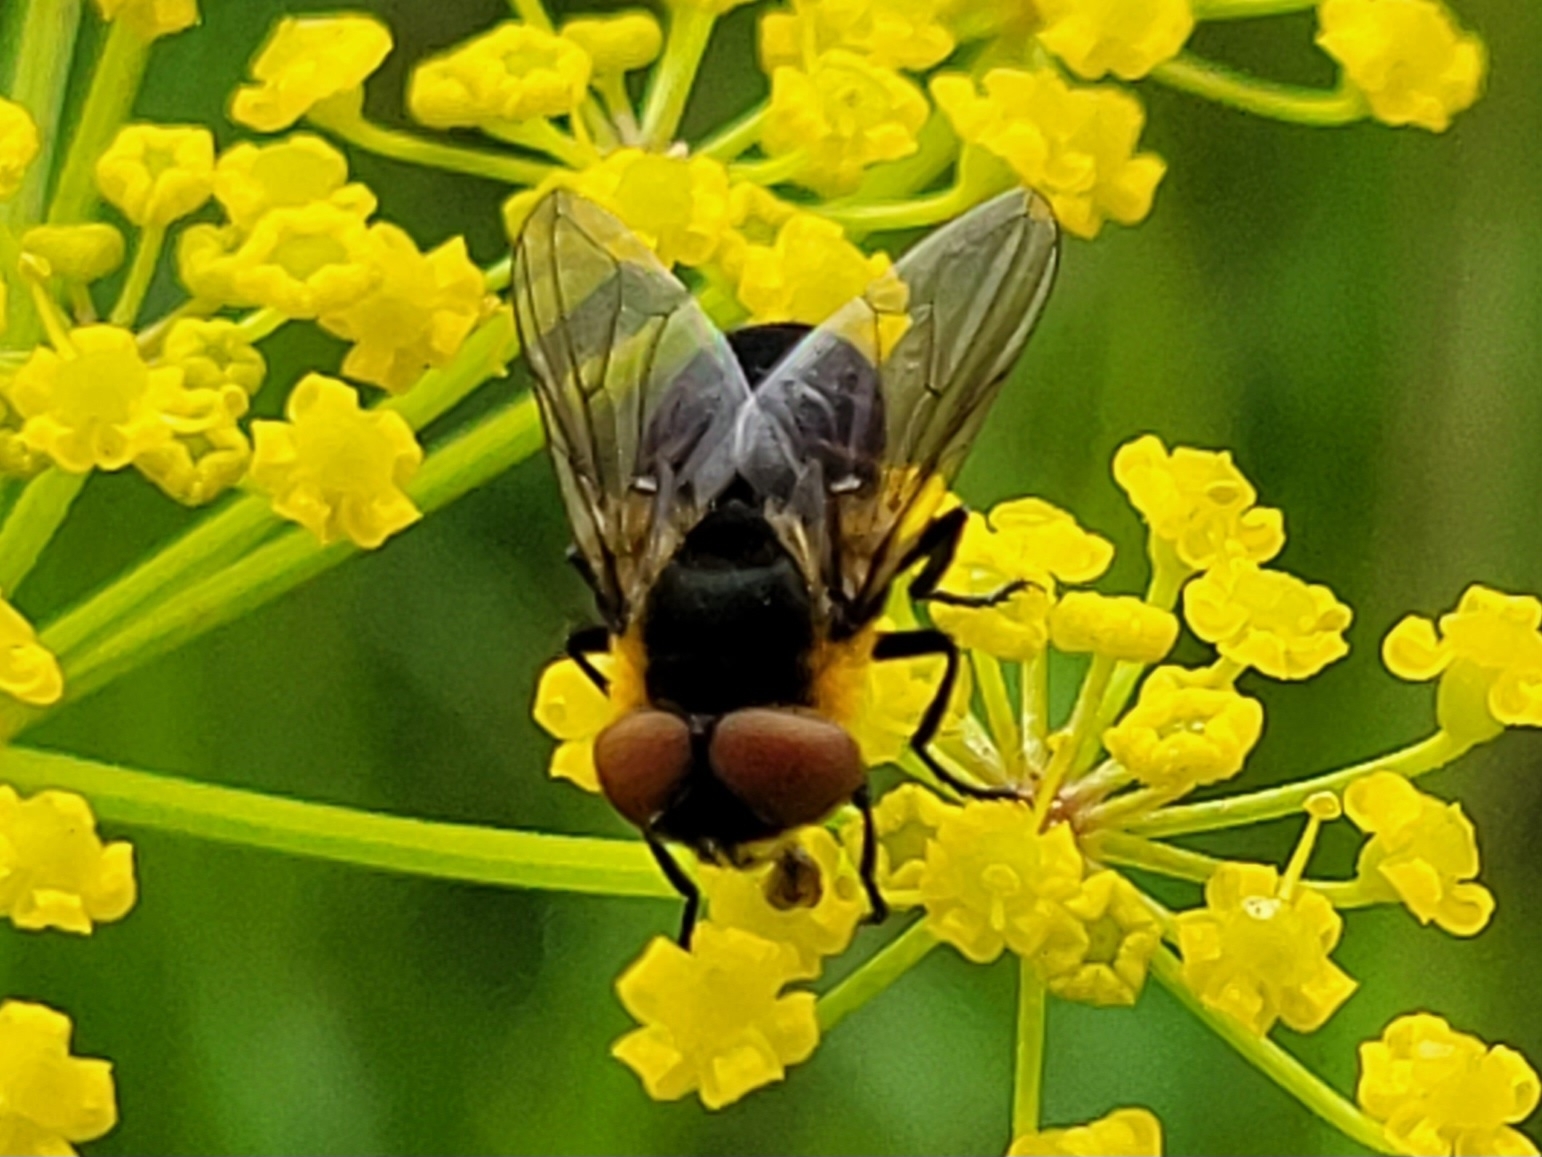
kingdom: Animalia
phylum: Arthropoda
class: Insecta
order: Diptera
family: Tachinidae
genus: Phasia
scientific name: Phasia hemiptera
